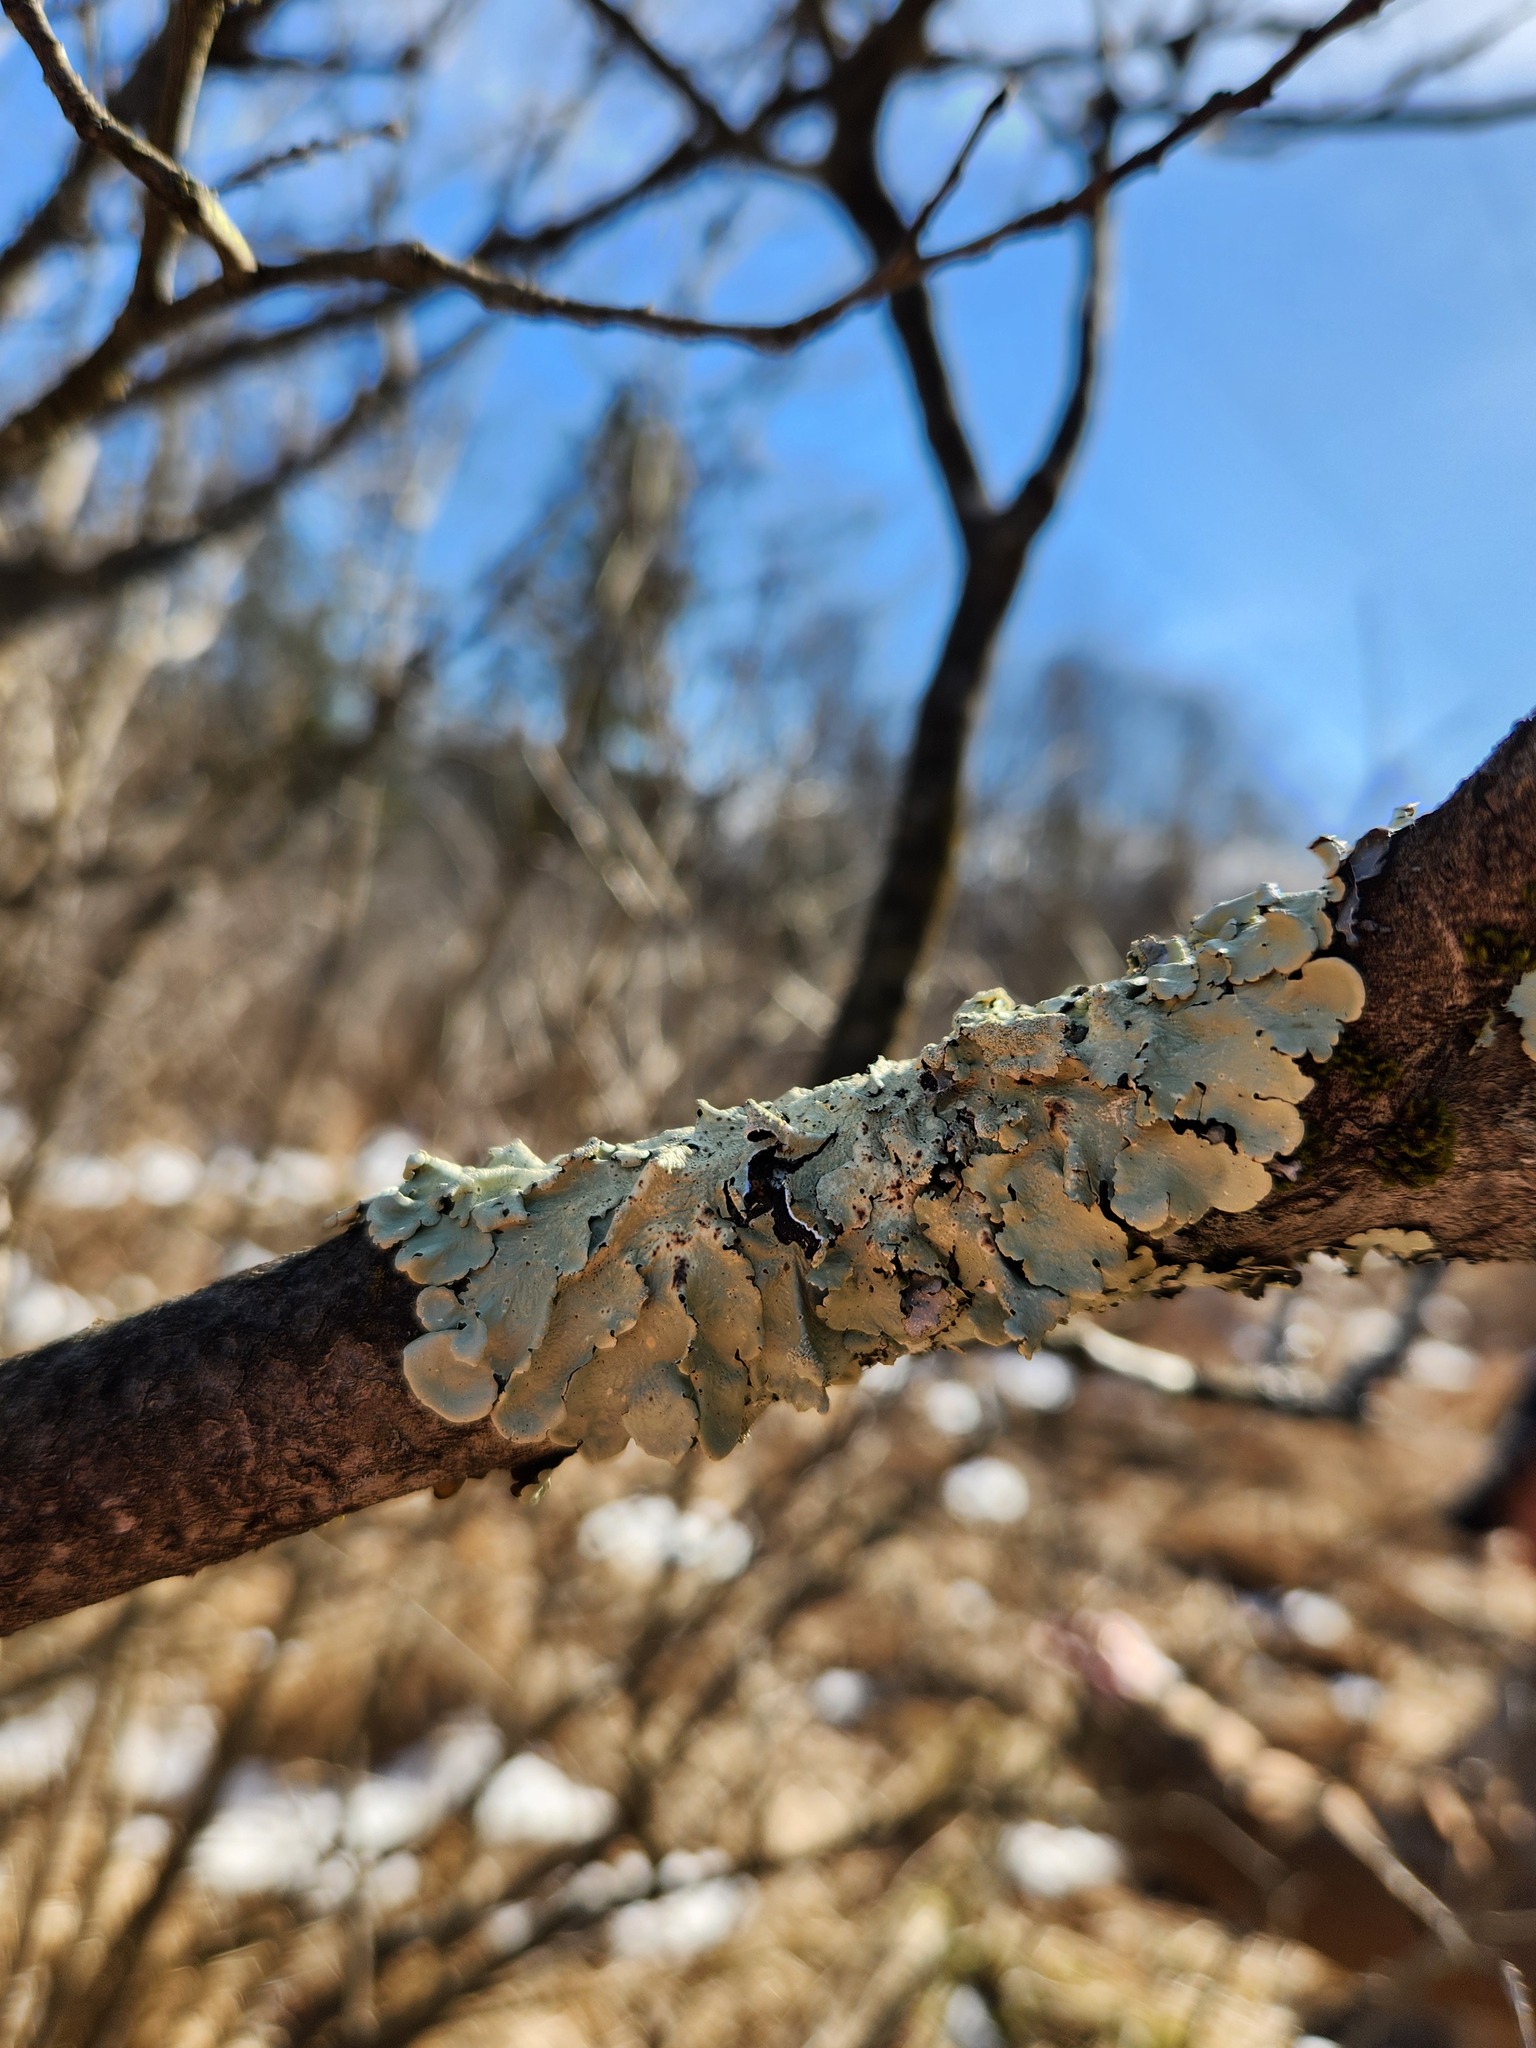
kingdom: Fungi
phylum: Ascomycota
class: Lecanoromycetes
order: Lecanorales
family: Parmeliaceae
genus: Flavoparmelia
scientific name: Flavoparmelia caperata
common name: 40-mile per hour lichen
